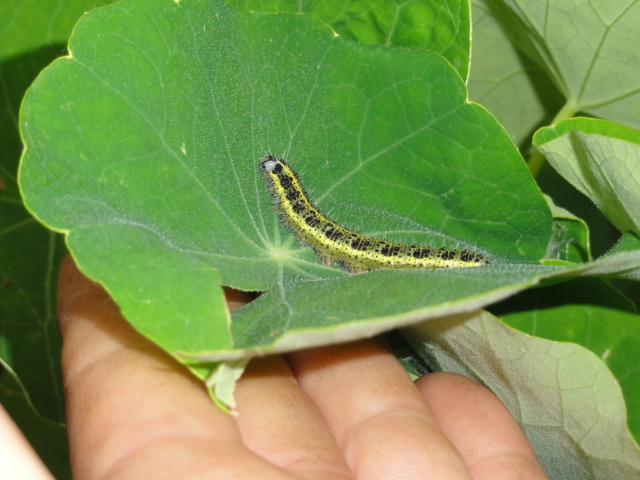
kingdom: Animalia
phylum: Arthropoda
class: Insecta
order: Lepidoptera
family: Pieridae
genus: Pieris
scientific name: Pieris brassicae
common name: Large white
